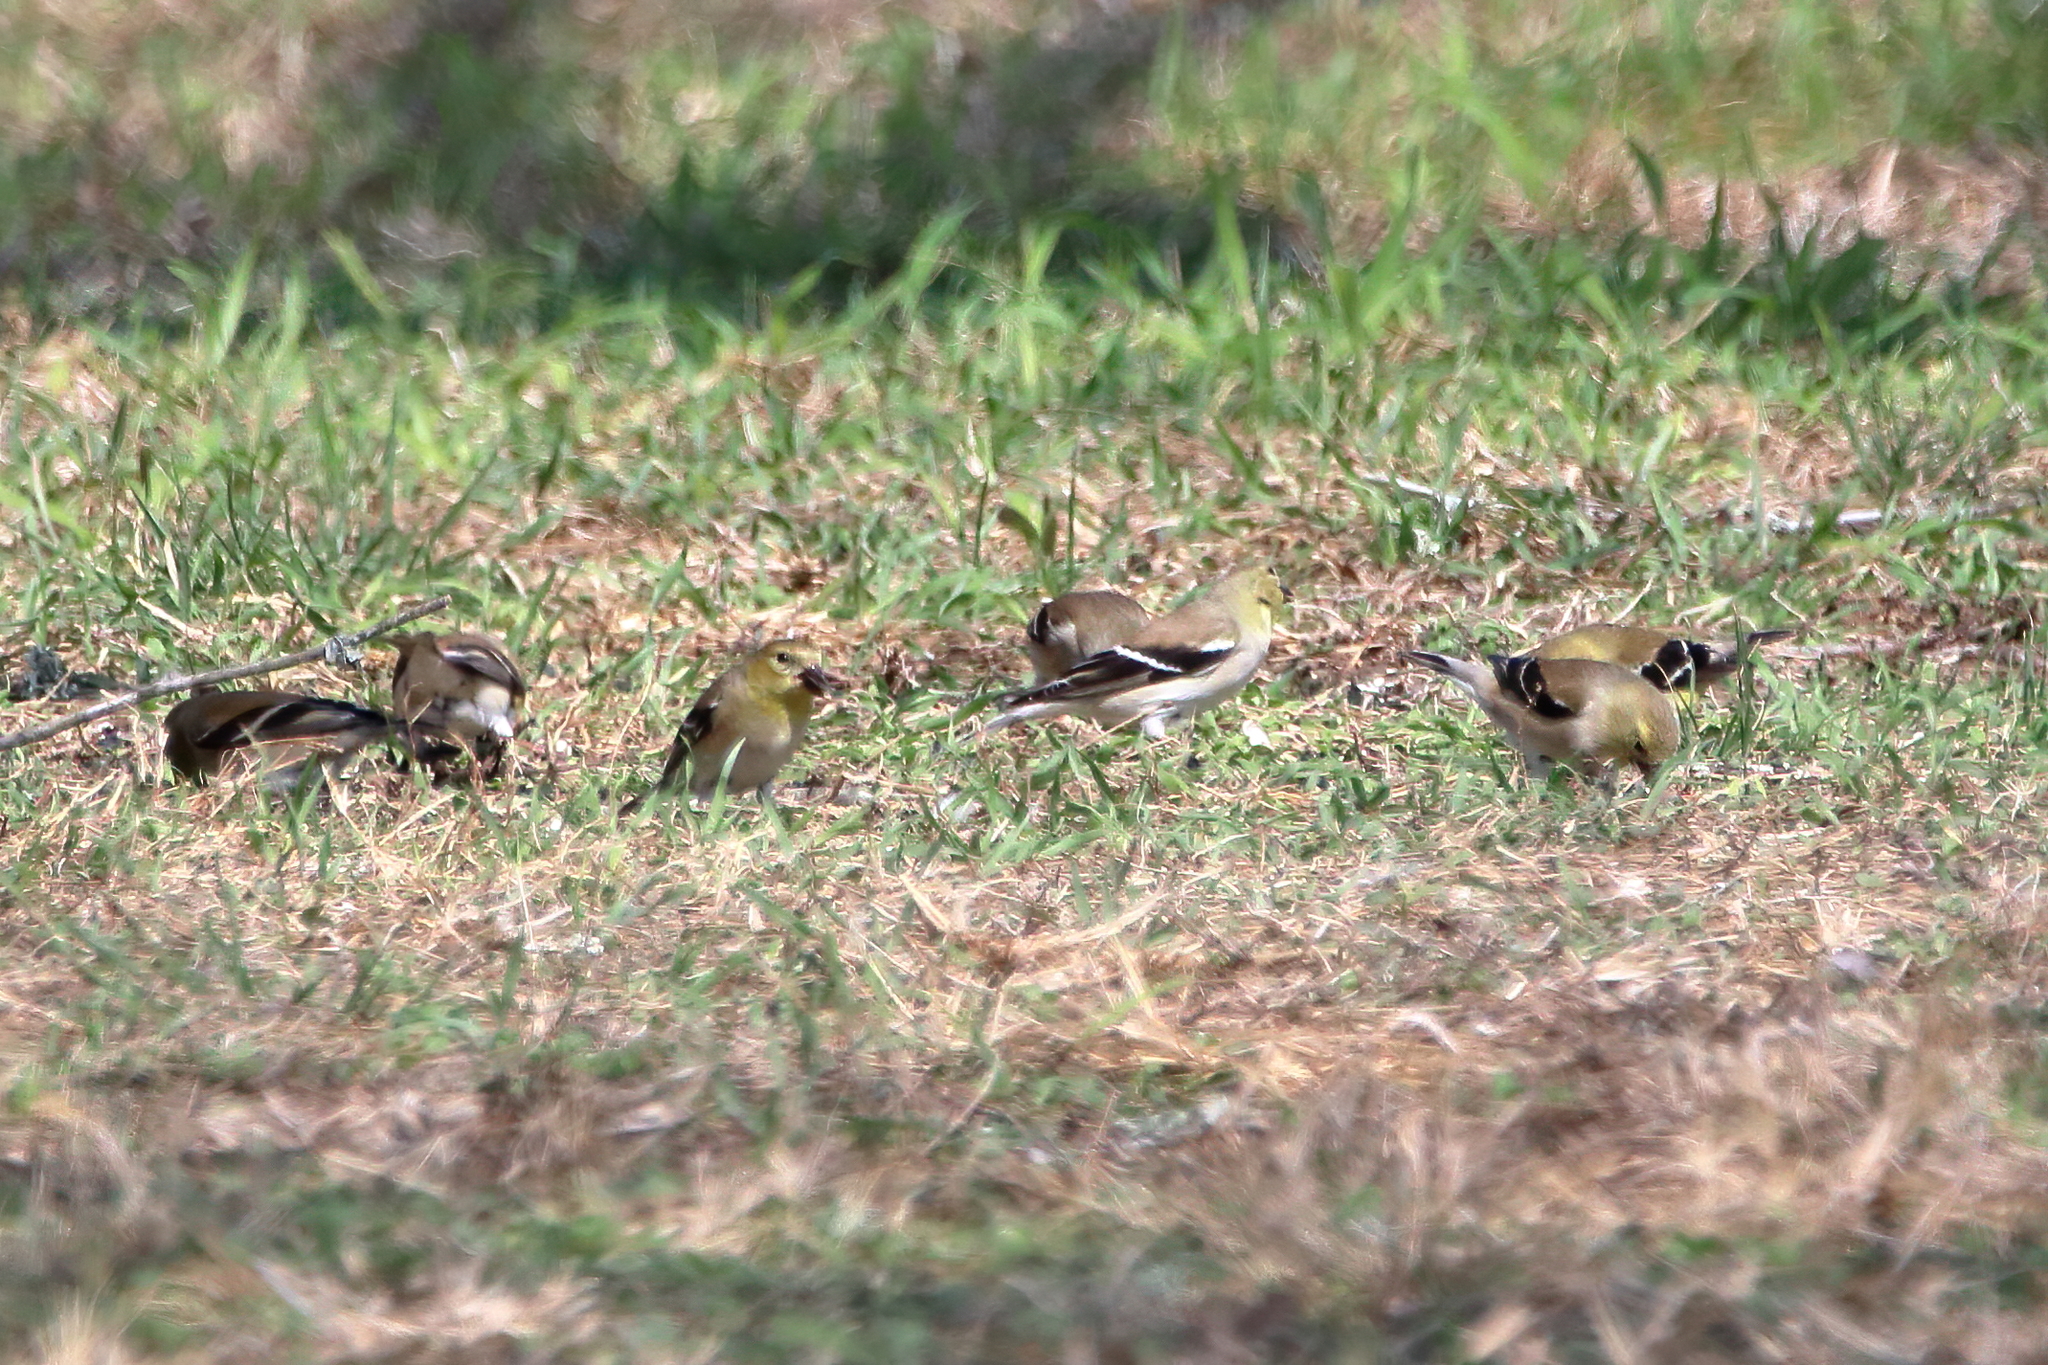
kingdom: Animalia
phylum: Chordata
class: Aves
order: Passeriformes
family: Fringillidae
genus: Spinus
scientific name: Spinus tristis
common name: American goldfinch
